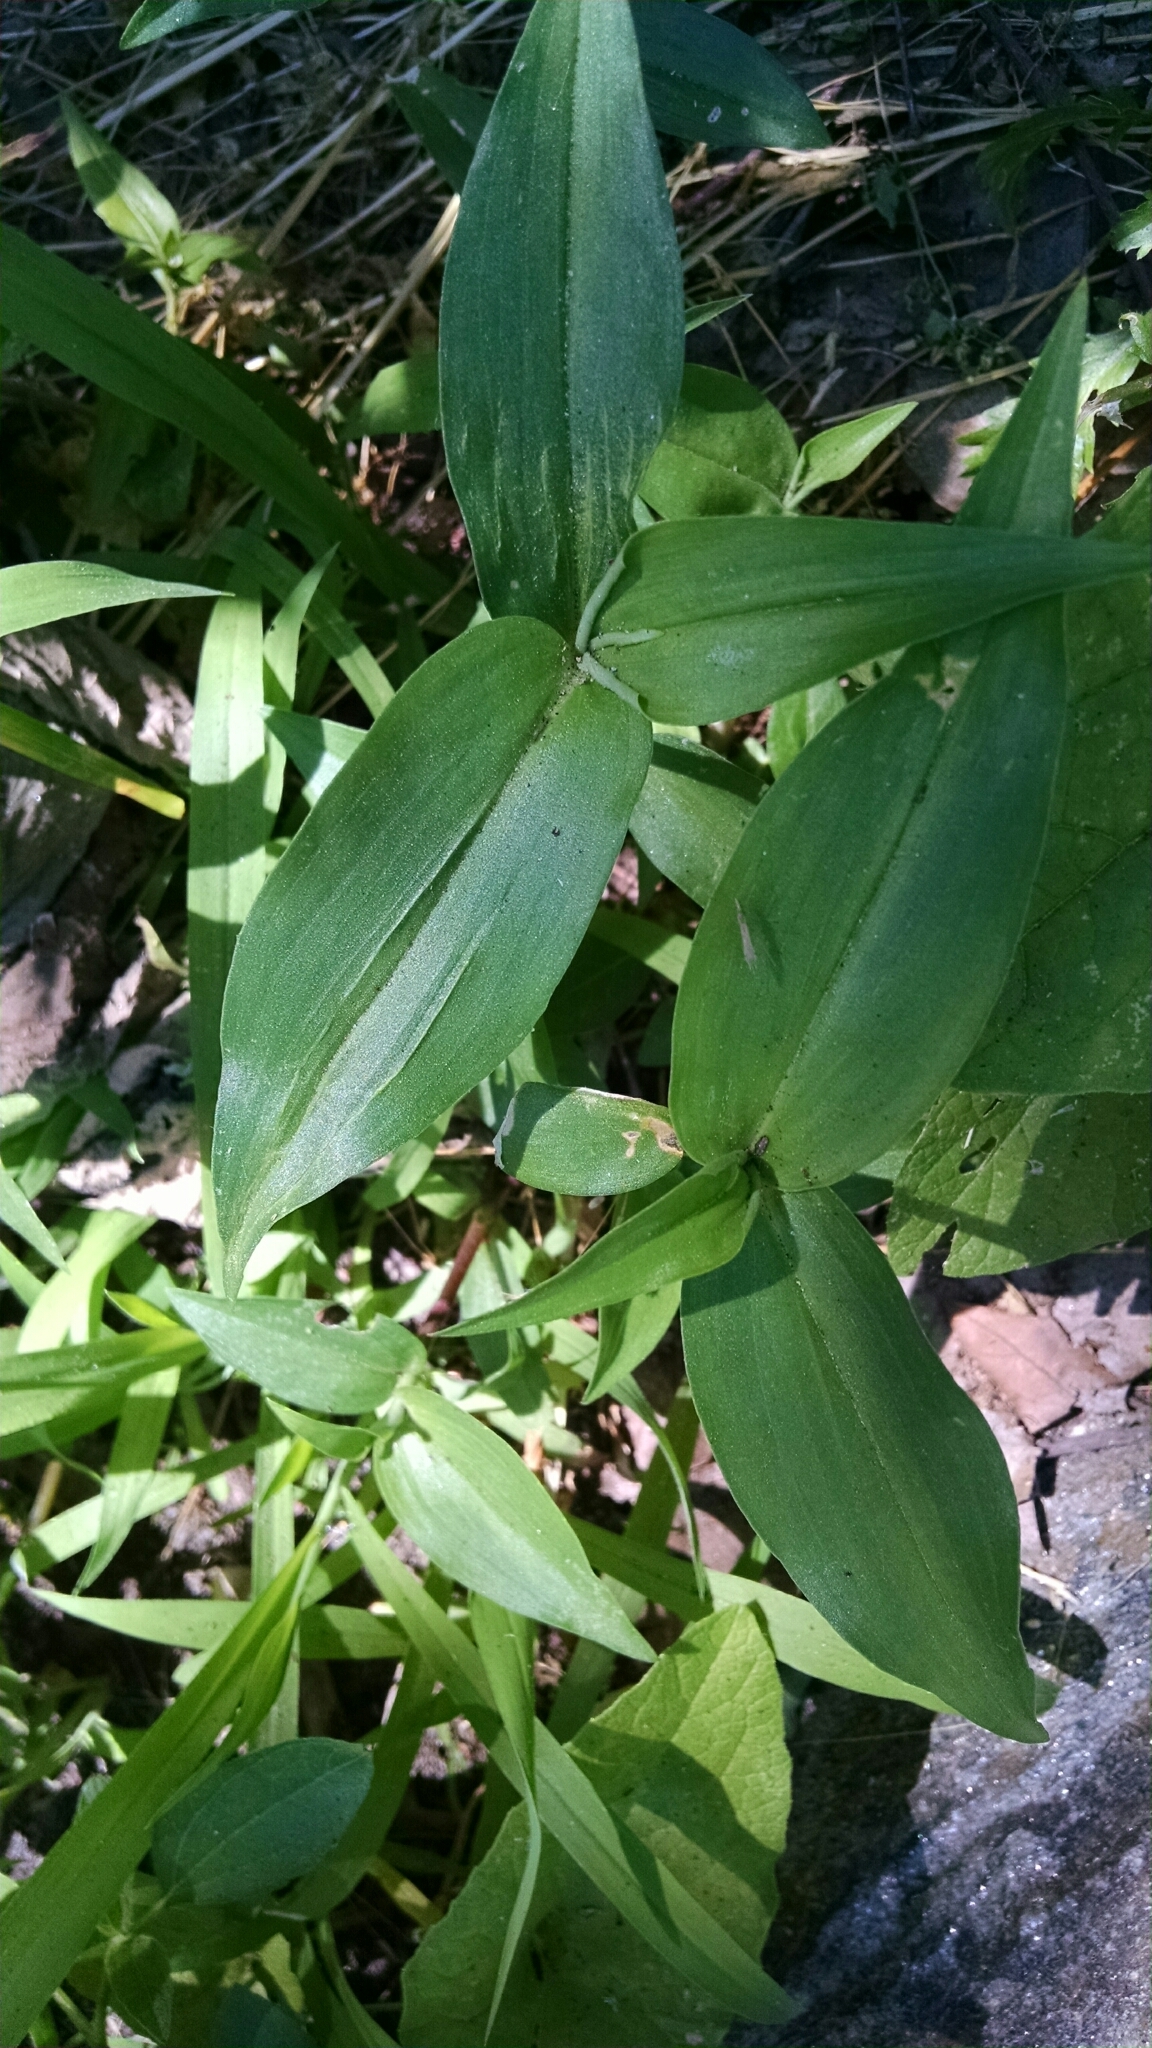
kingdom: Plantae
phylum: Tracheophyta
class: Liliopsida
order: Commelinales
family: Commelinaceae
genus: Commelina
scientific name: Commelina communis
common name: Asiatic dayflower
